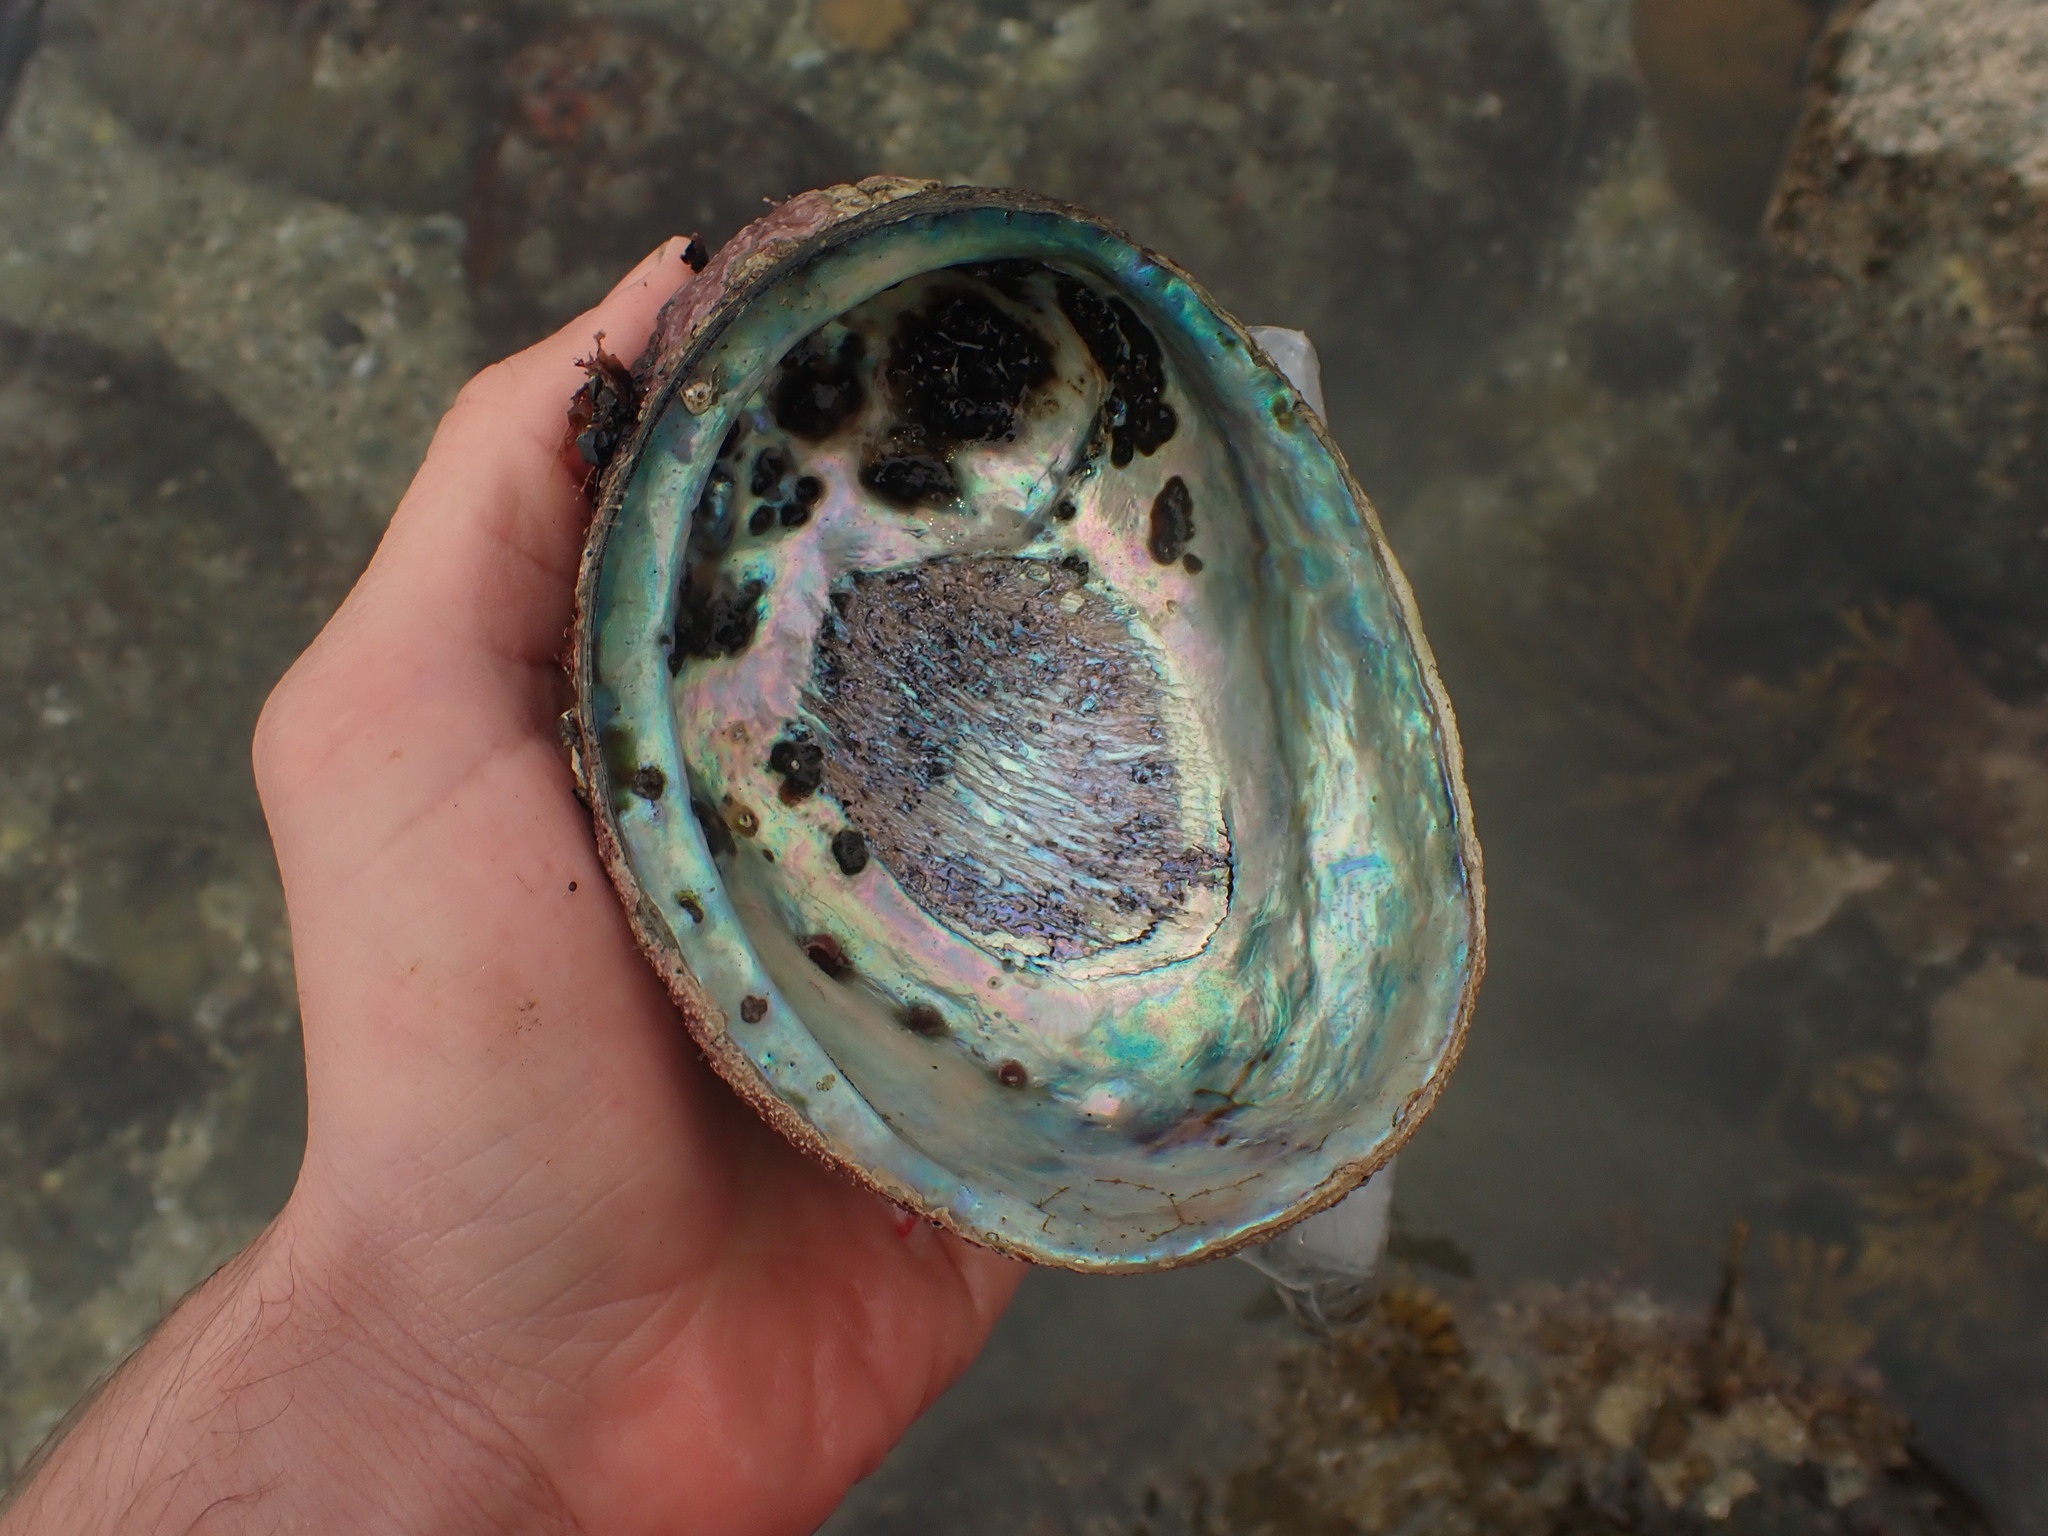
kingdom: Animalia
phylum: Mollusca
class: Gastropoda
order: Lepetellida
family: Haliotidae
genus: Haliotis
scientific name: Haliotis iris
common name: Abalone
